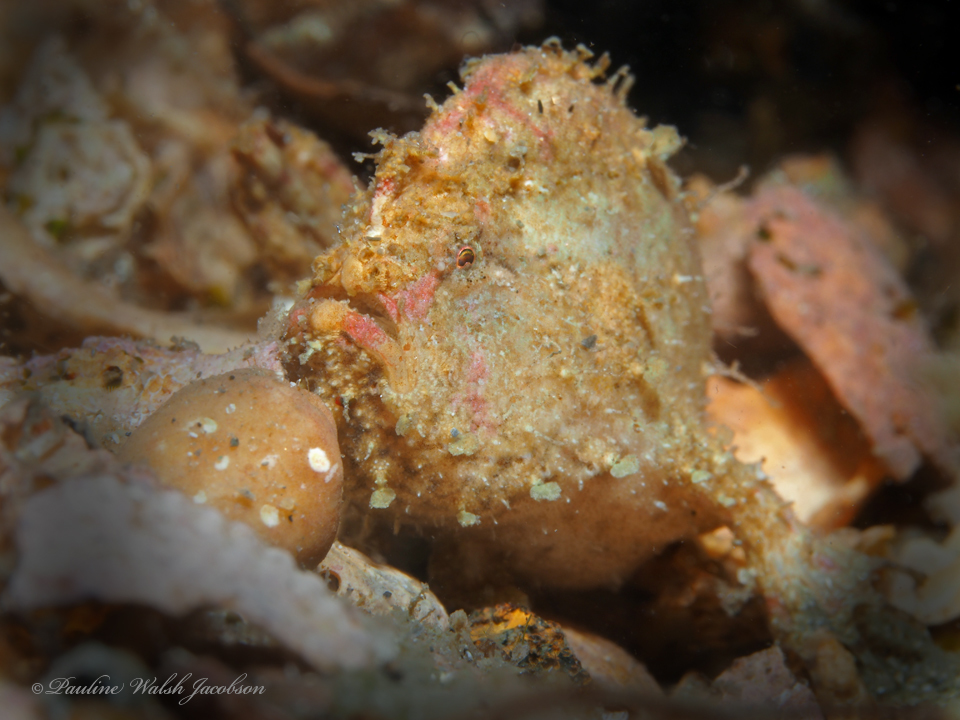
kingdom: Animalia
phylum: Chordata
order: Lophiiformes
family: Antennariidae
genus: Antennarius
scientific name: Antennarius pauciradiatus
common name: Dwarf frogfish
